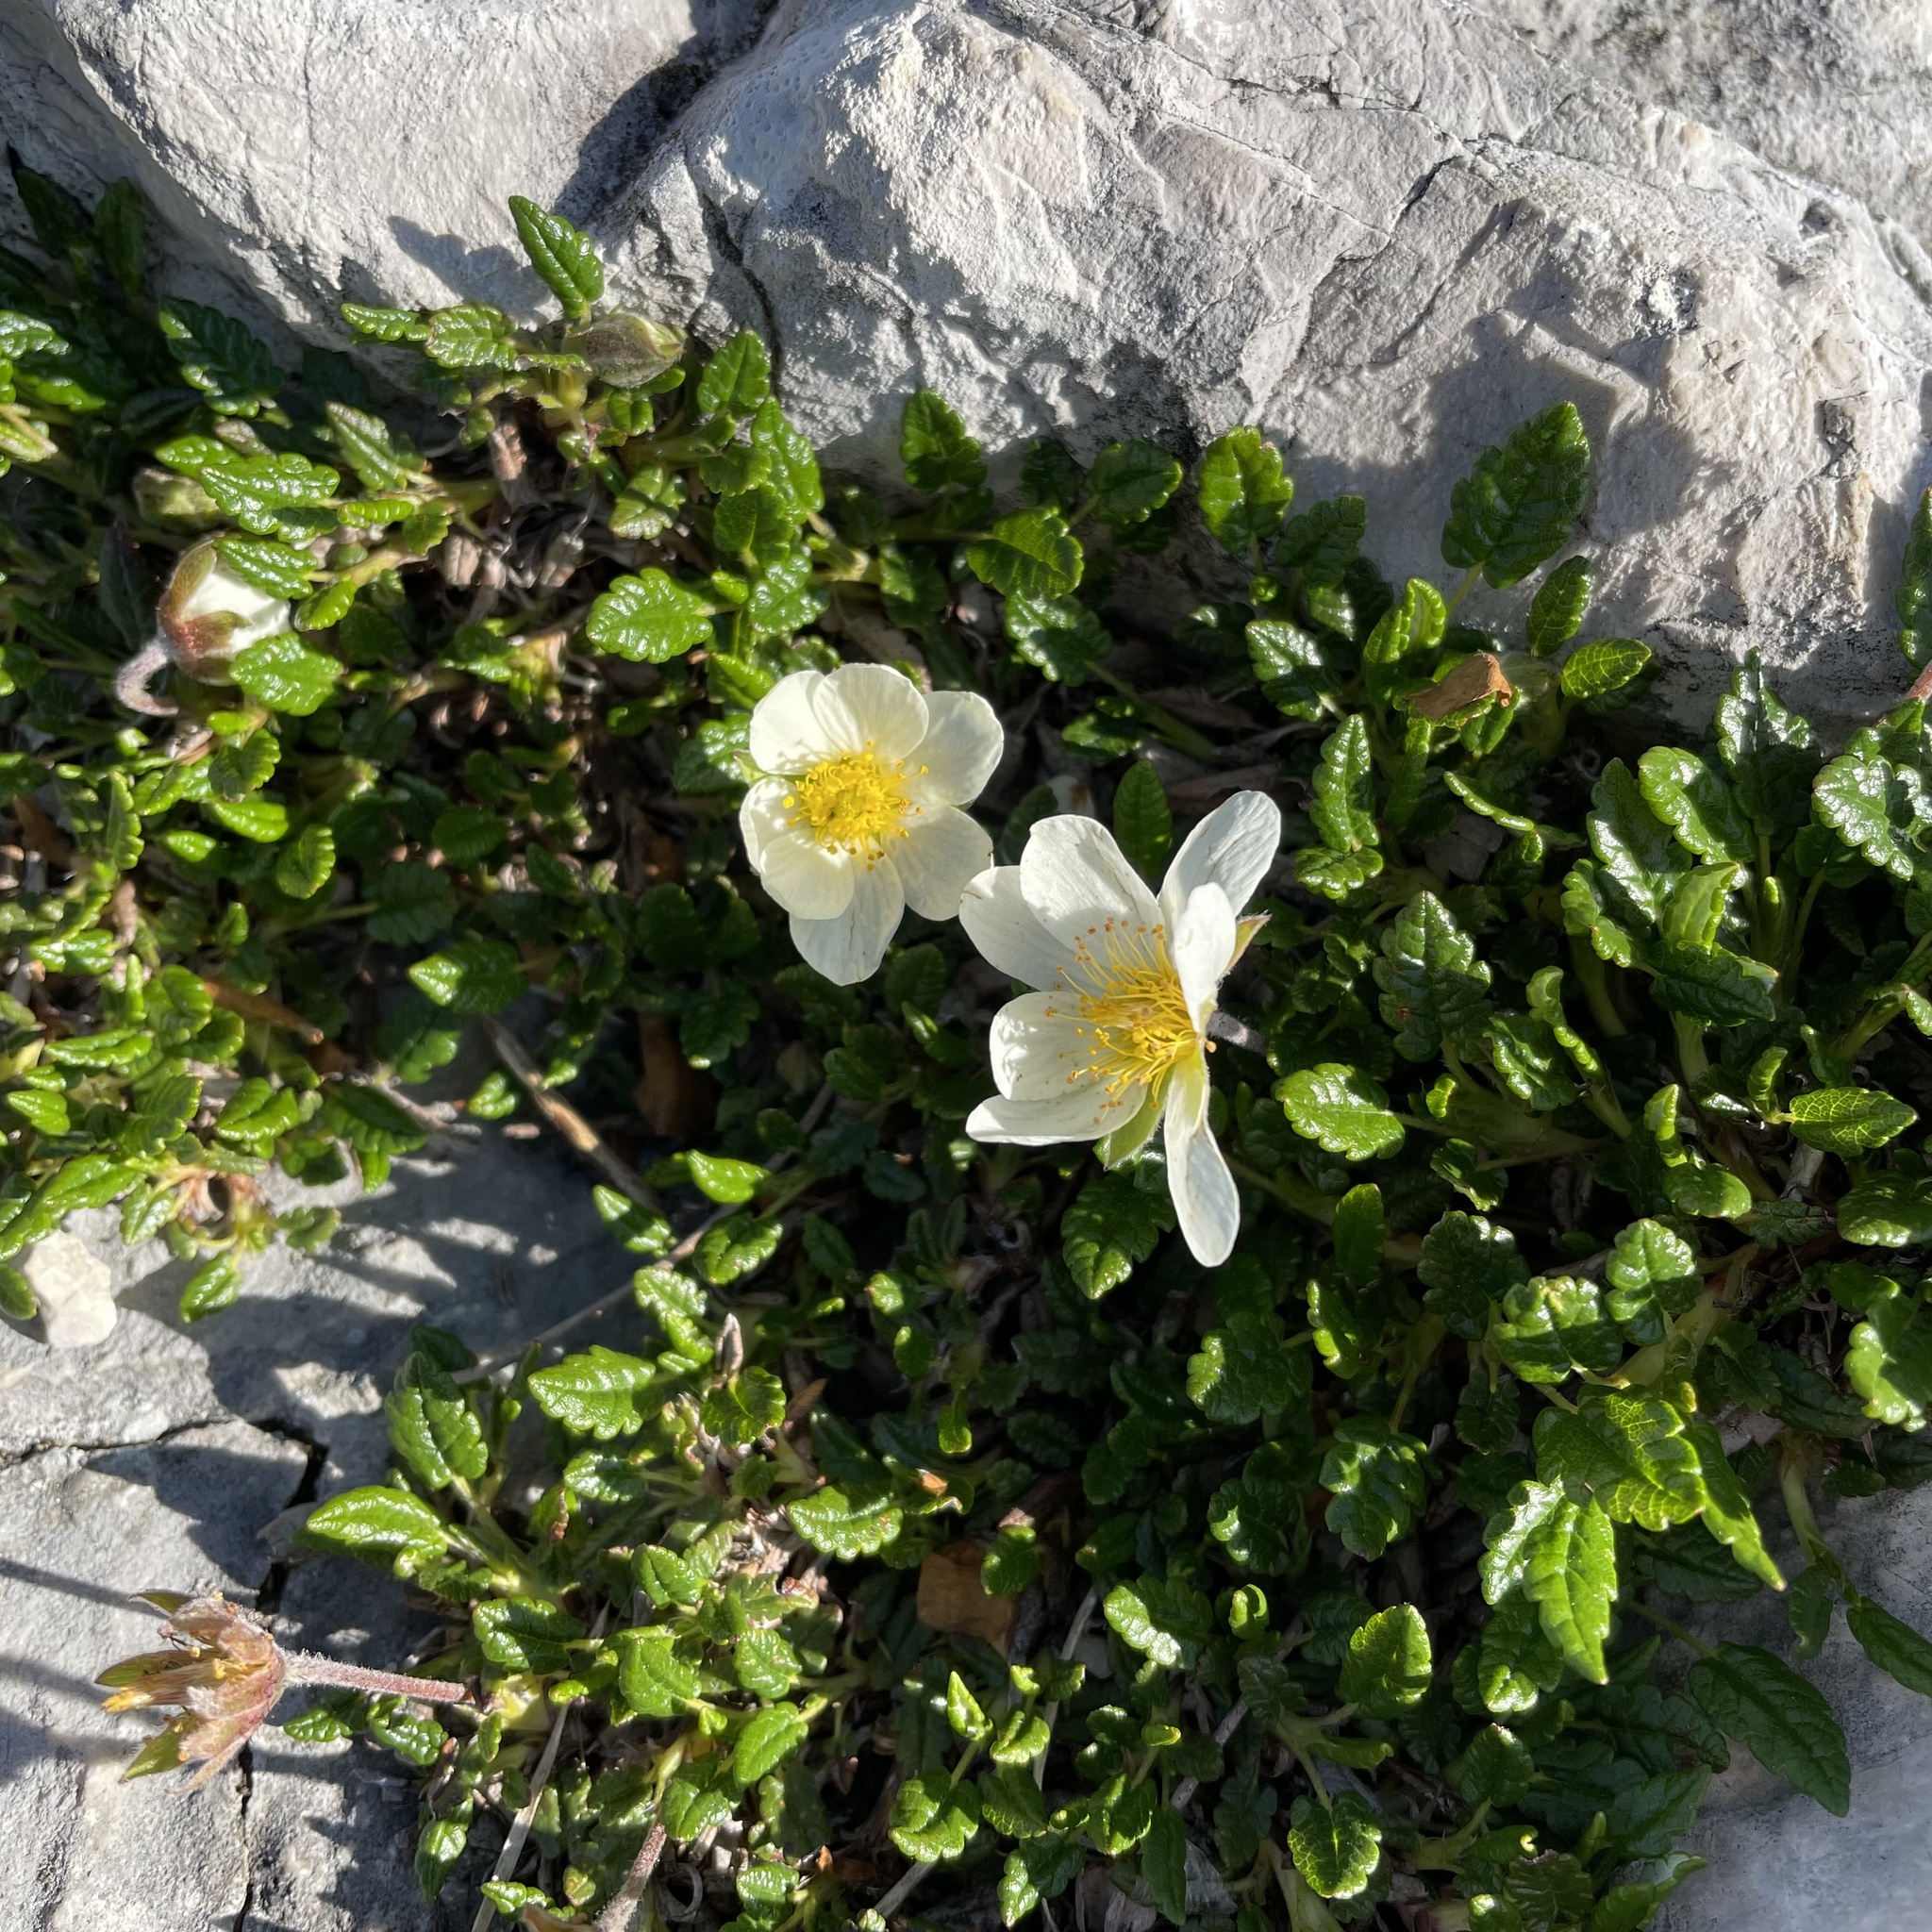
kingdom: Plantae
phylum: Tracheophyta
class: Magnoliopsida
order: Rosales
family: Rosaceae
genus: Dryas
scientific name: Dryas octopetala
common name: Eight-petal mountain-avens
